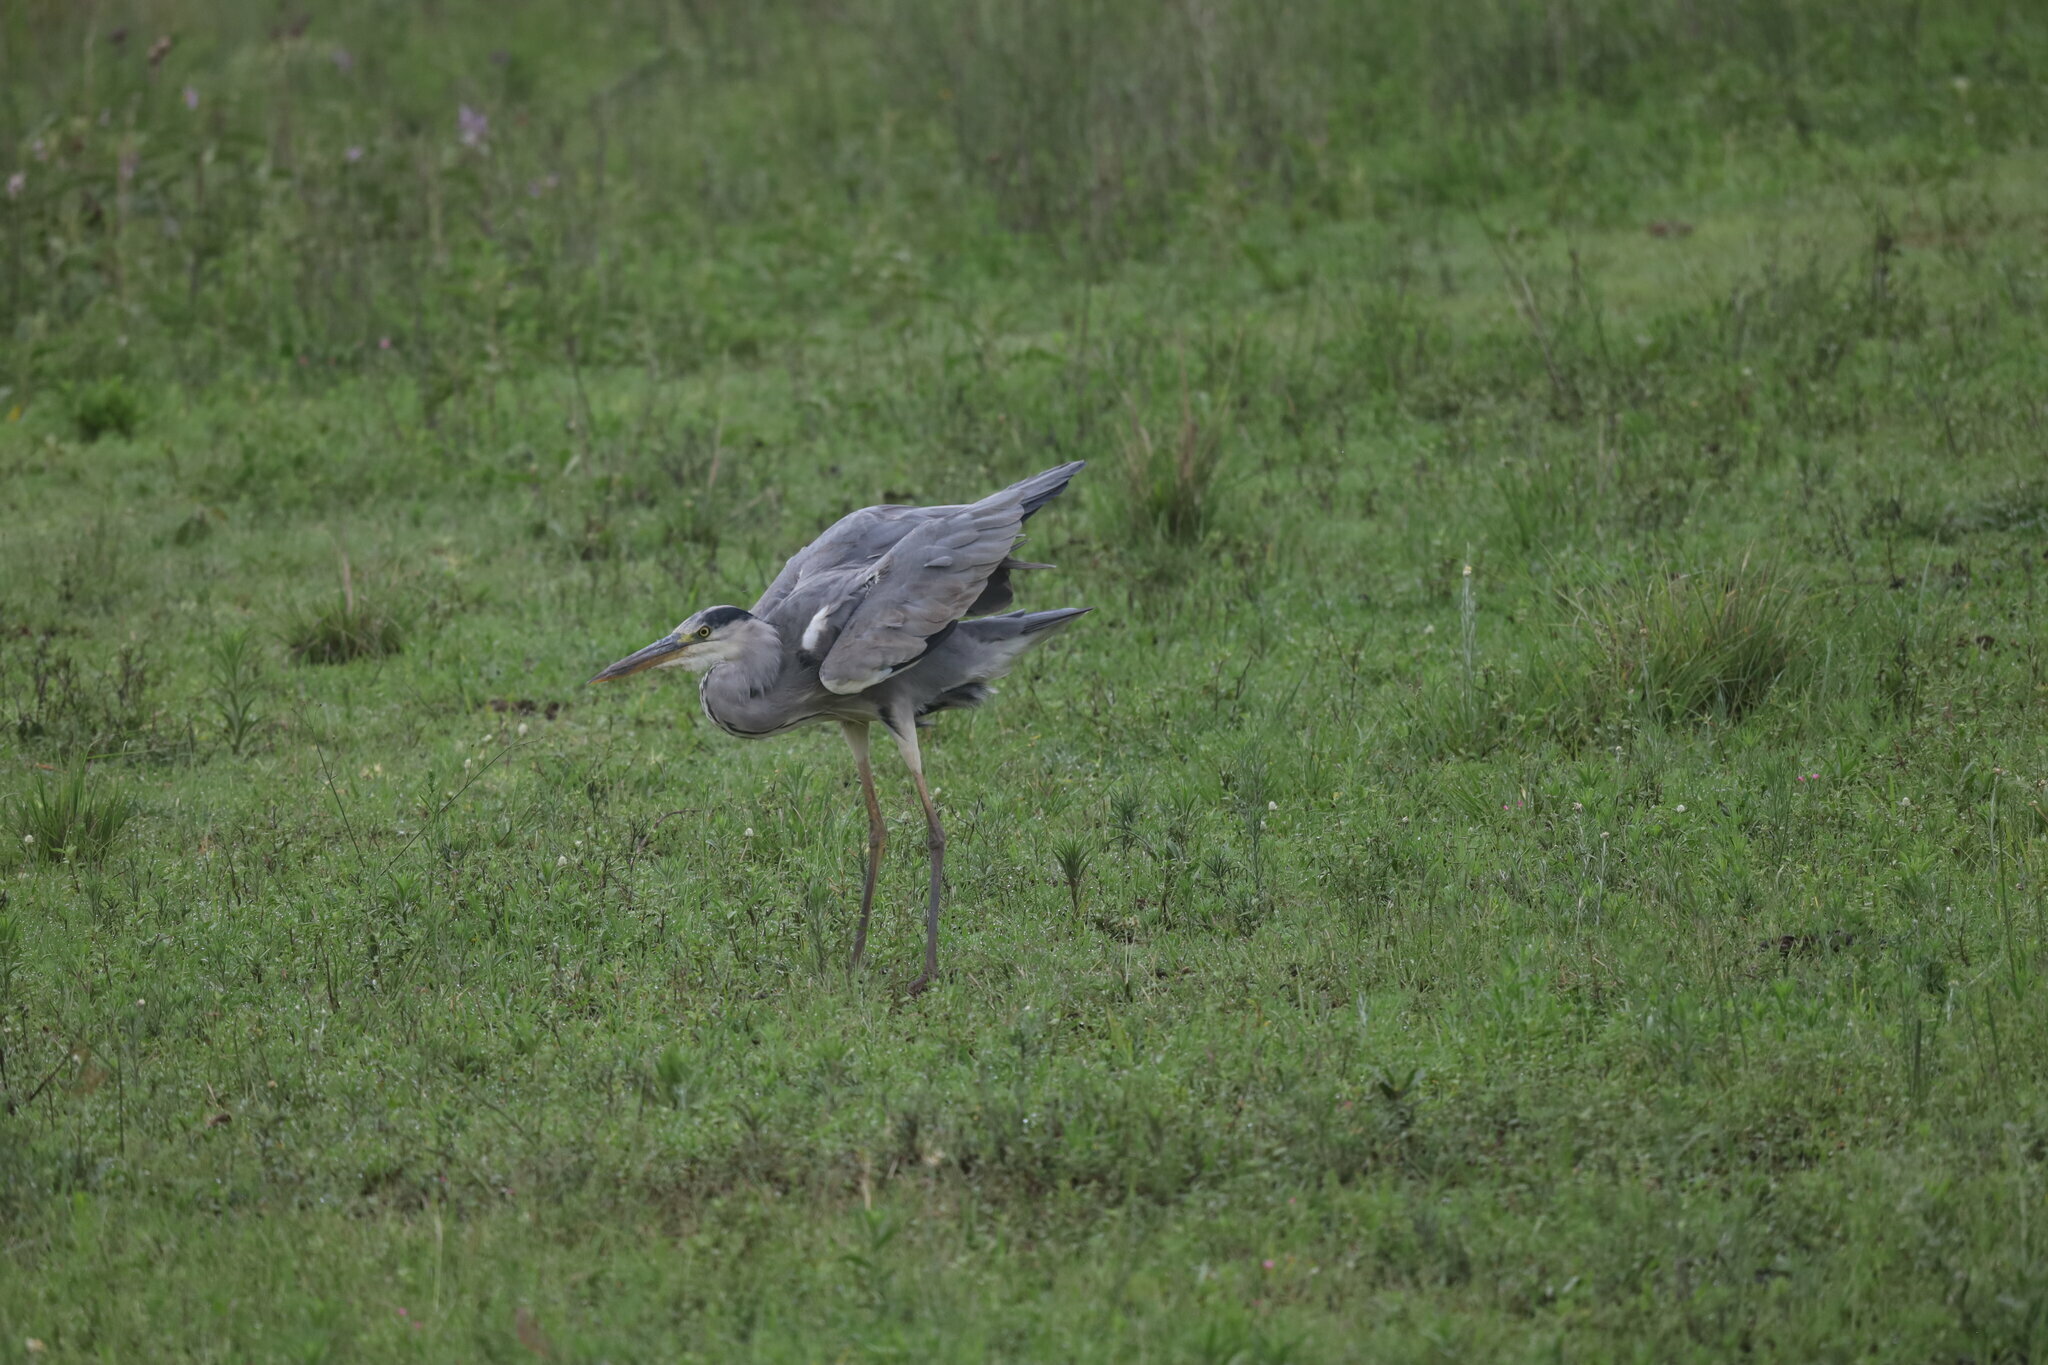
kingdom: Animalia
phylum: Chordata
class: Aves
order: Pelecaniformes
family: Ardeidae
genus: Ardea
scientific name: Ardea cinerea
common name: Grey heron
